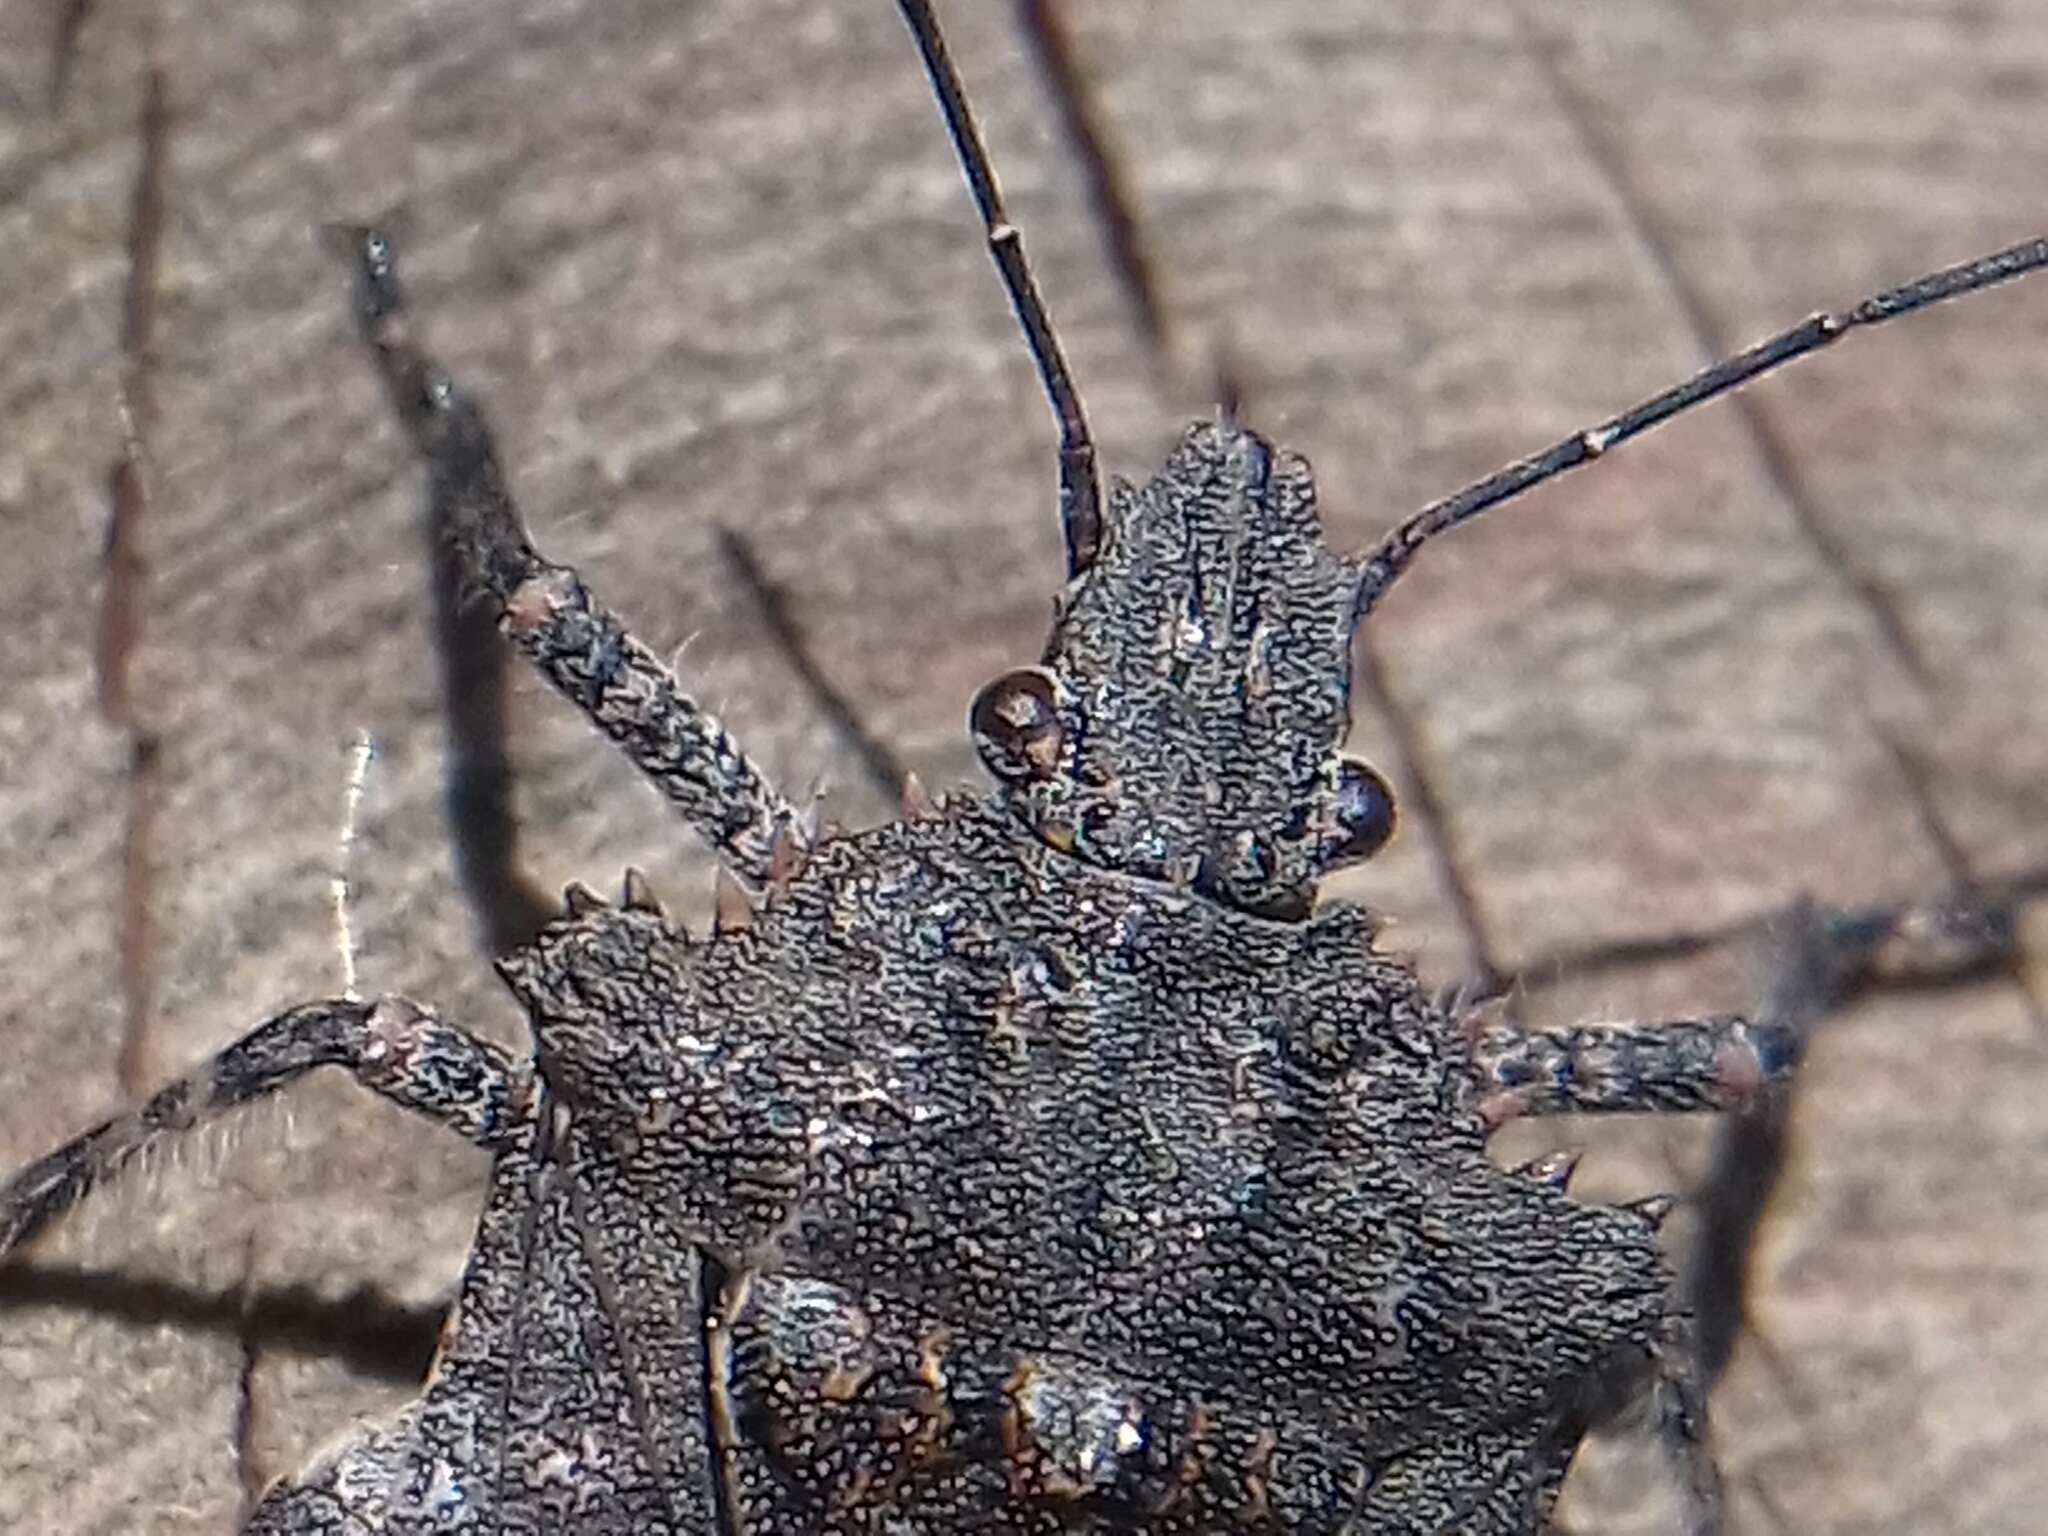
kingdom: Animalia
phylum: Arthropoda
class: Insecta
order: Hemiptera
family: Pentatomidae
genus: Brochymena
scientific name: Brochymena dilata
